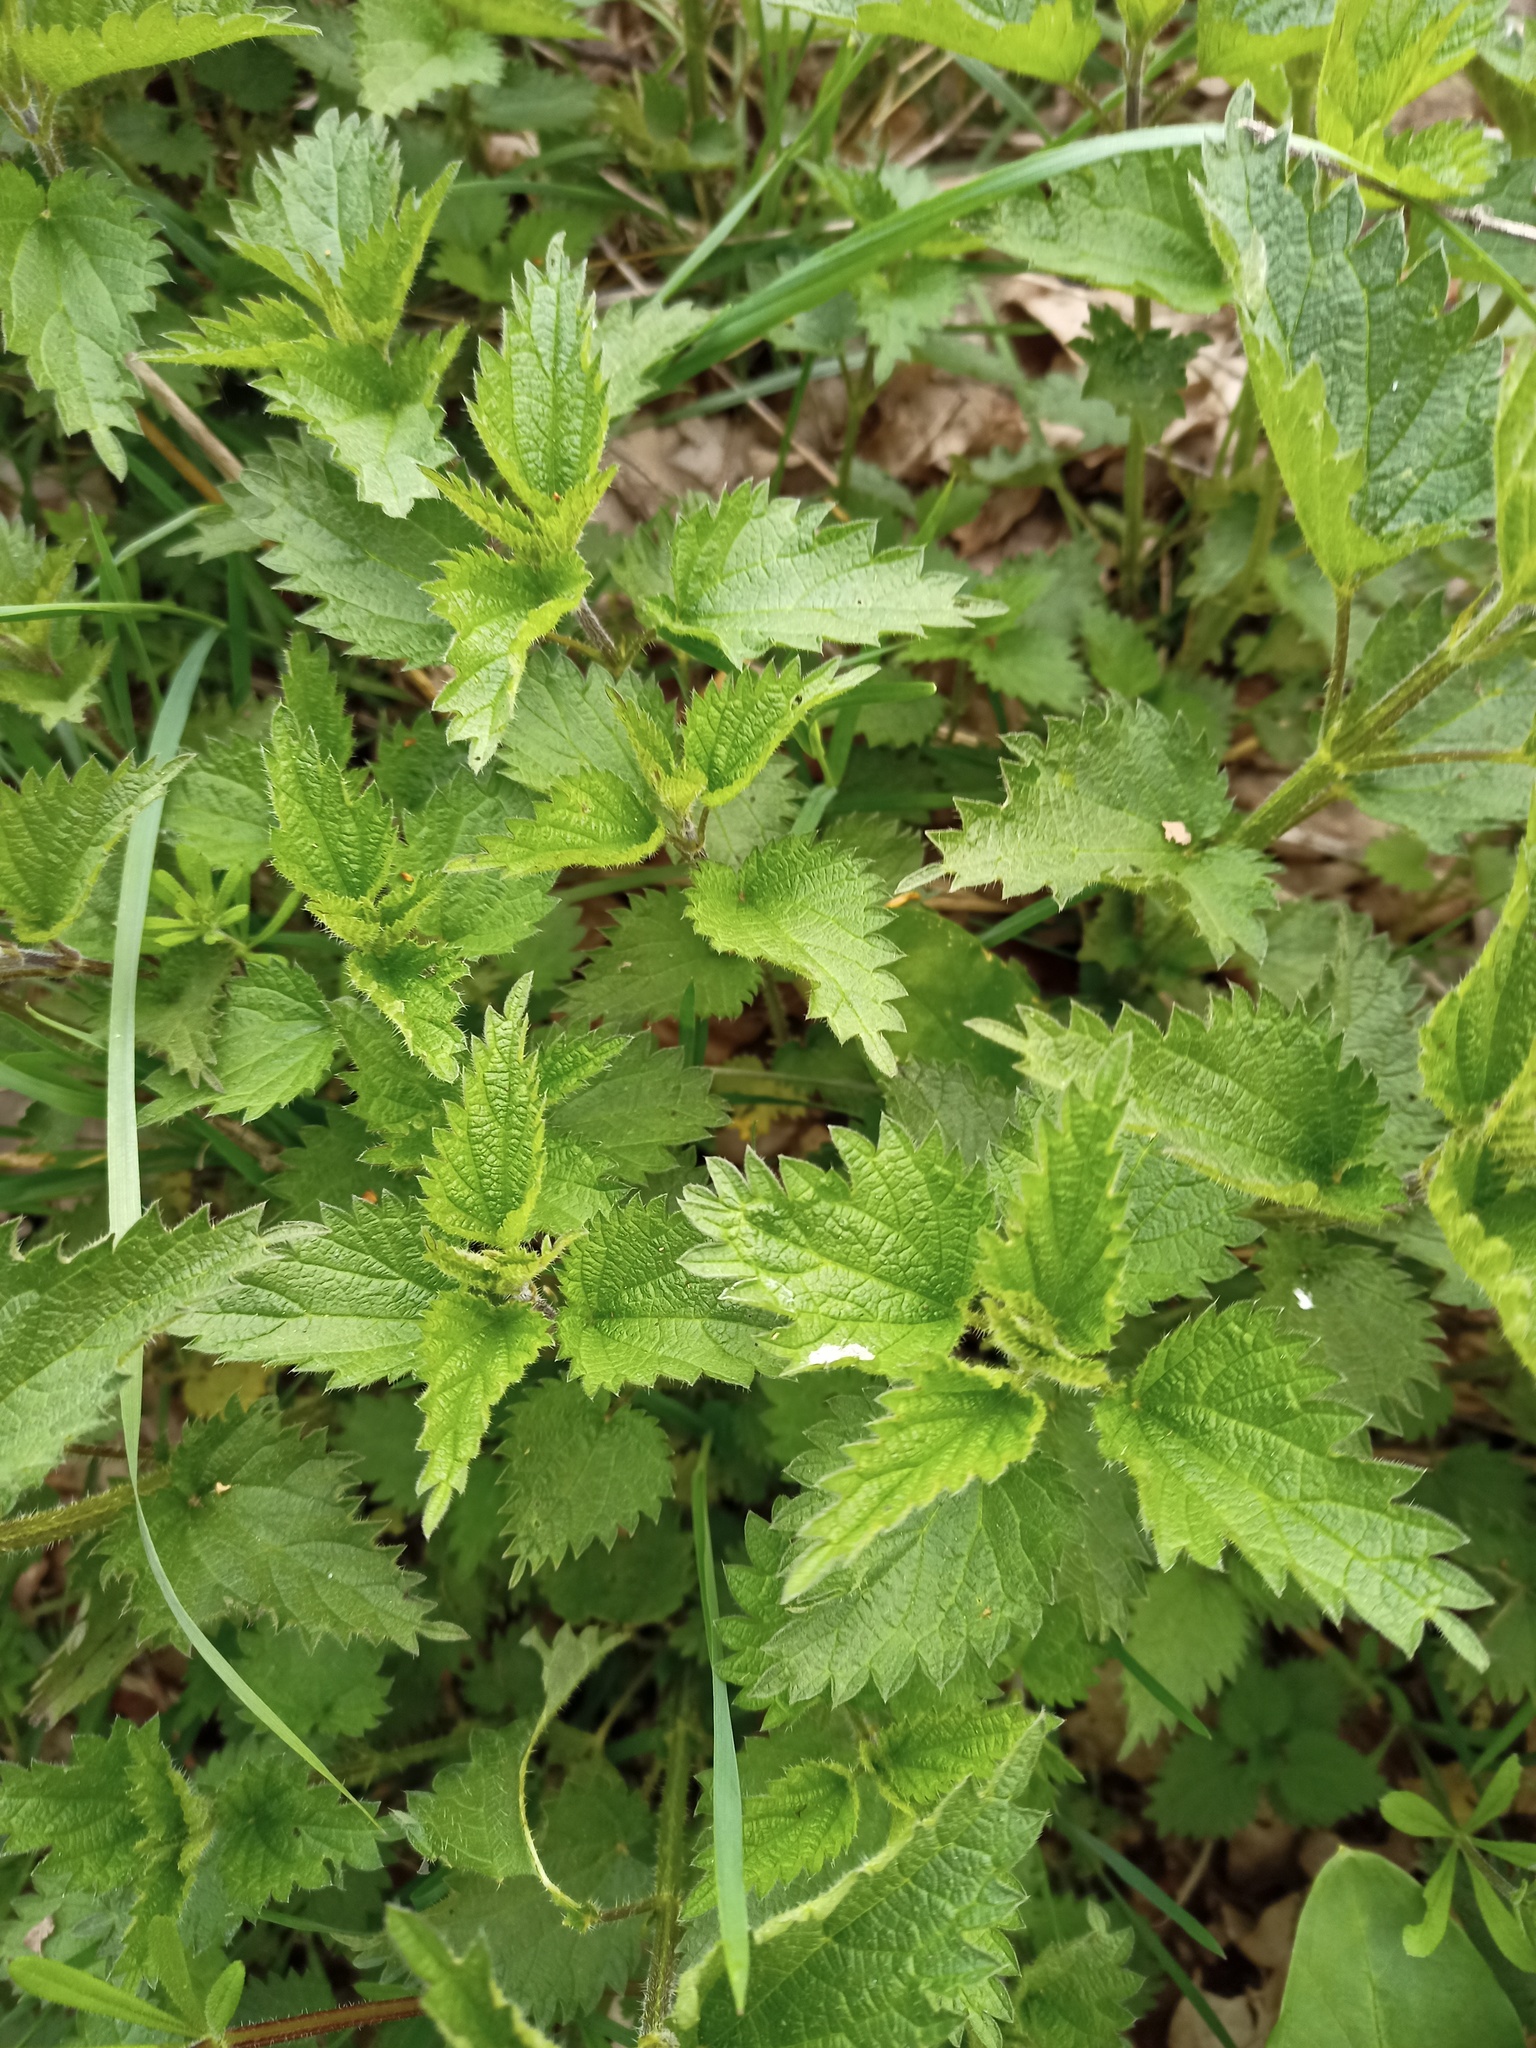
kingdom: Plantae
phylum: Tracheophyta
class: Magnoliopsida
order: Rosales
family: Urticaceae
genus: Urtica
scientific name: Urtica dioica
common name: Common nettle
